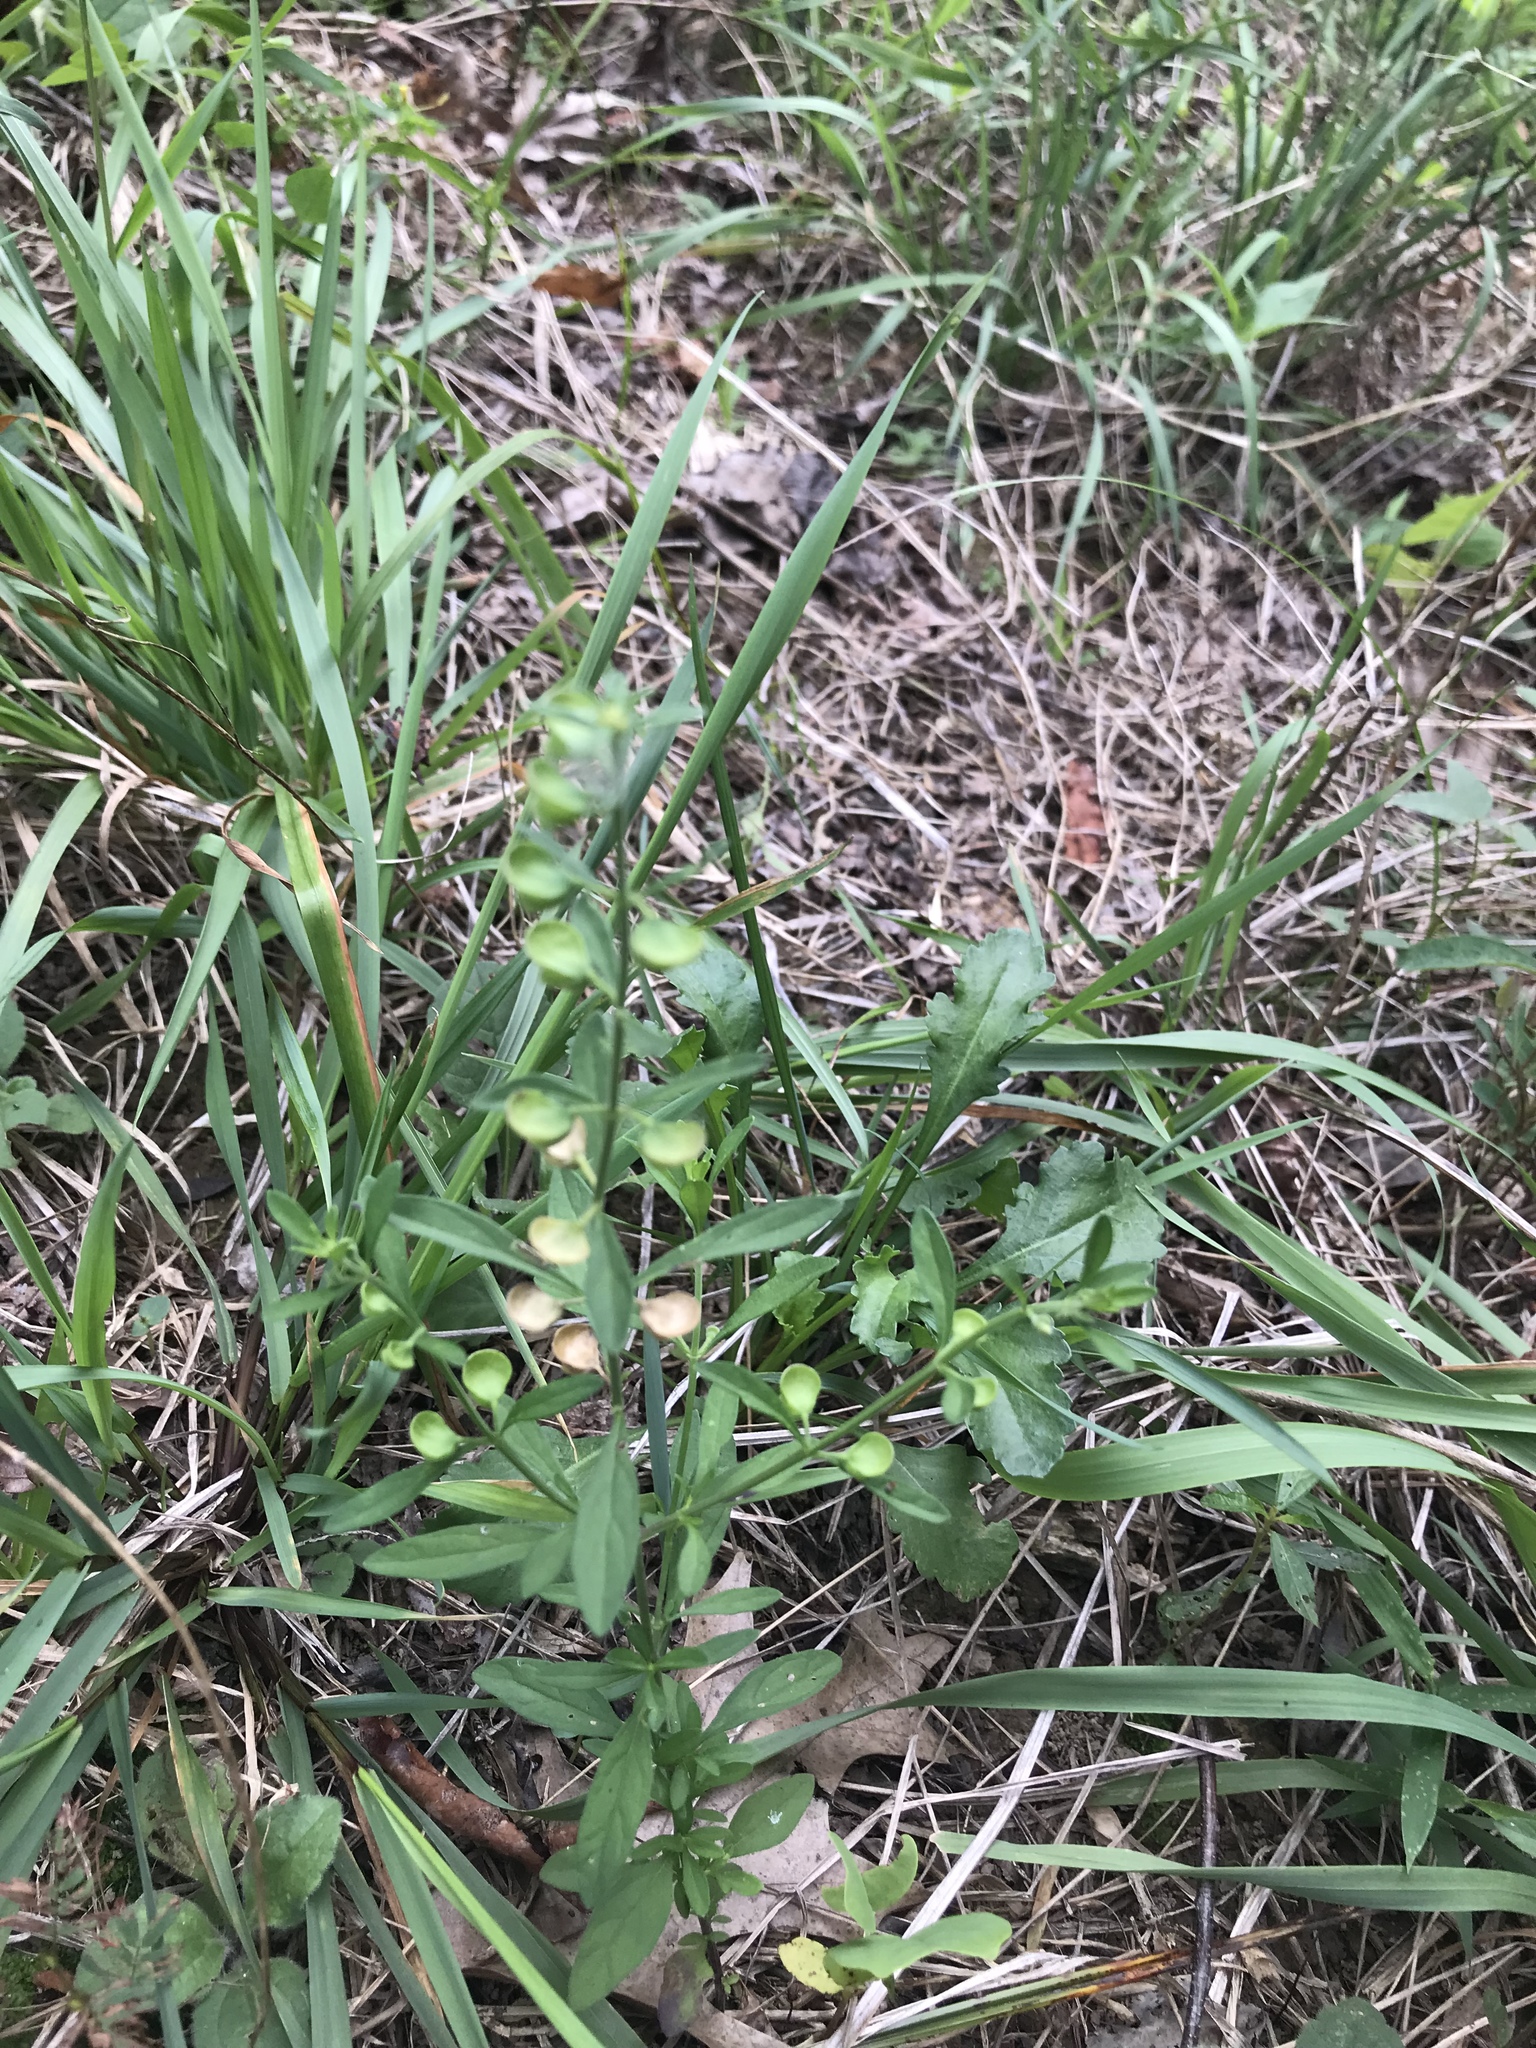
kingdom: Plantae
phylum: Tracheophyta
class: Magnoliopsida
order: Lamiales
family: Lamiaceae
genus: Scutellaria
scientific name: Scutellaria integrifolia
